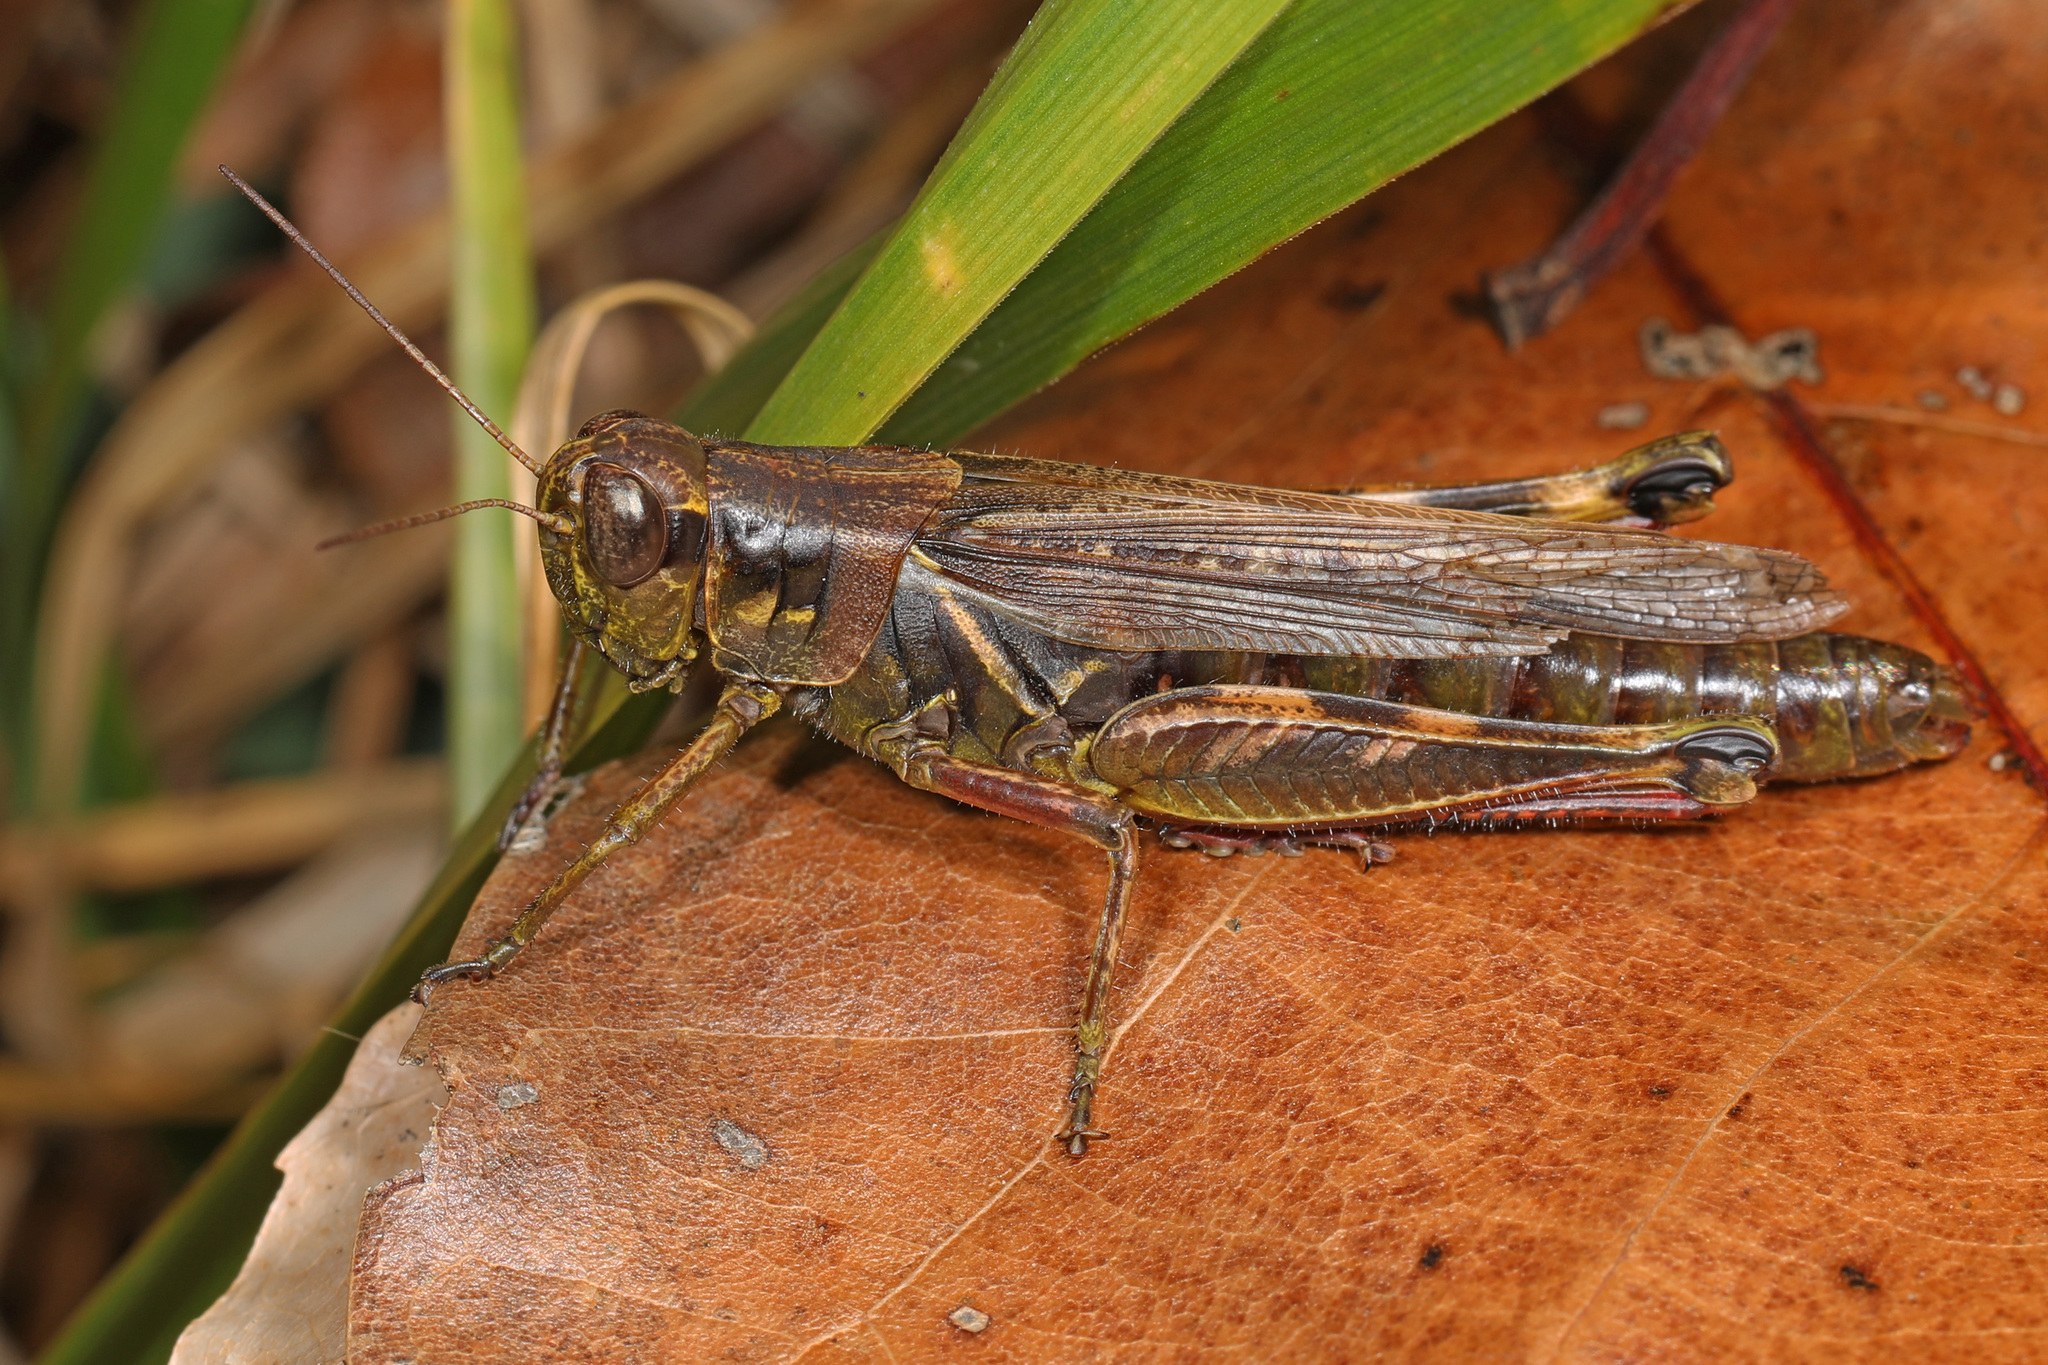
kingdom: Animalia
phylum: Arthropoda
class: Insecta
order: Orthoptera
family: Acrididae
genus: Melanoplus
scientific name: Melanoplus femurrubrum
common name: Red-legged grasshopper
